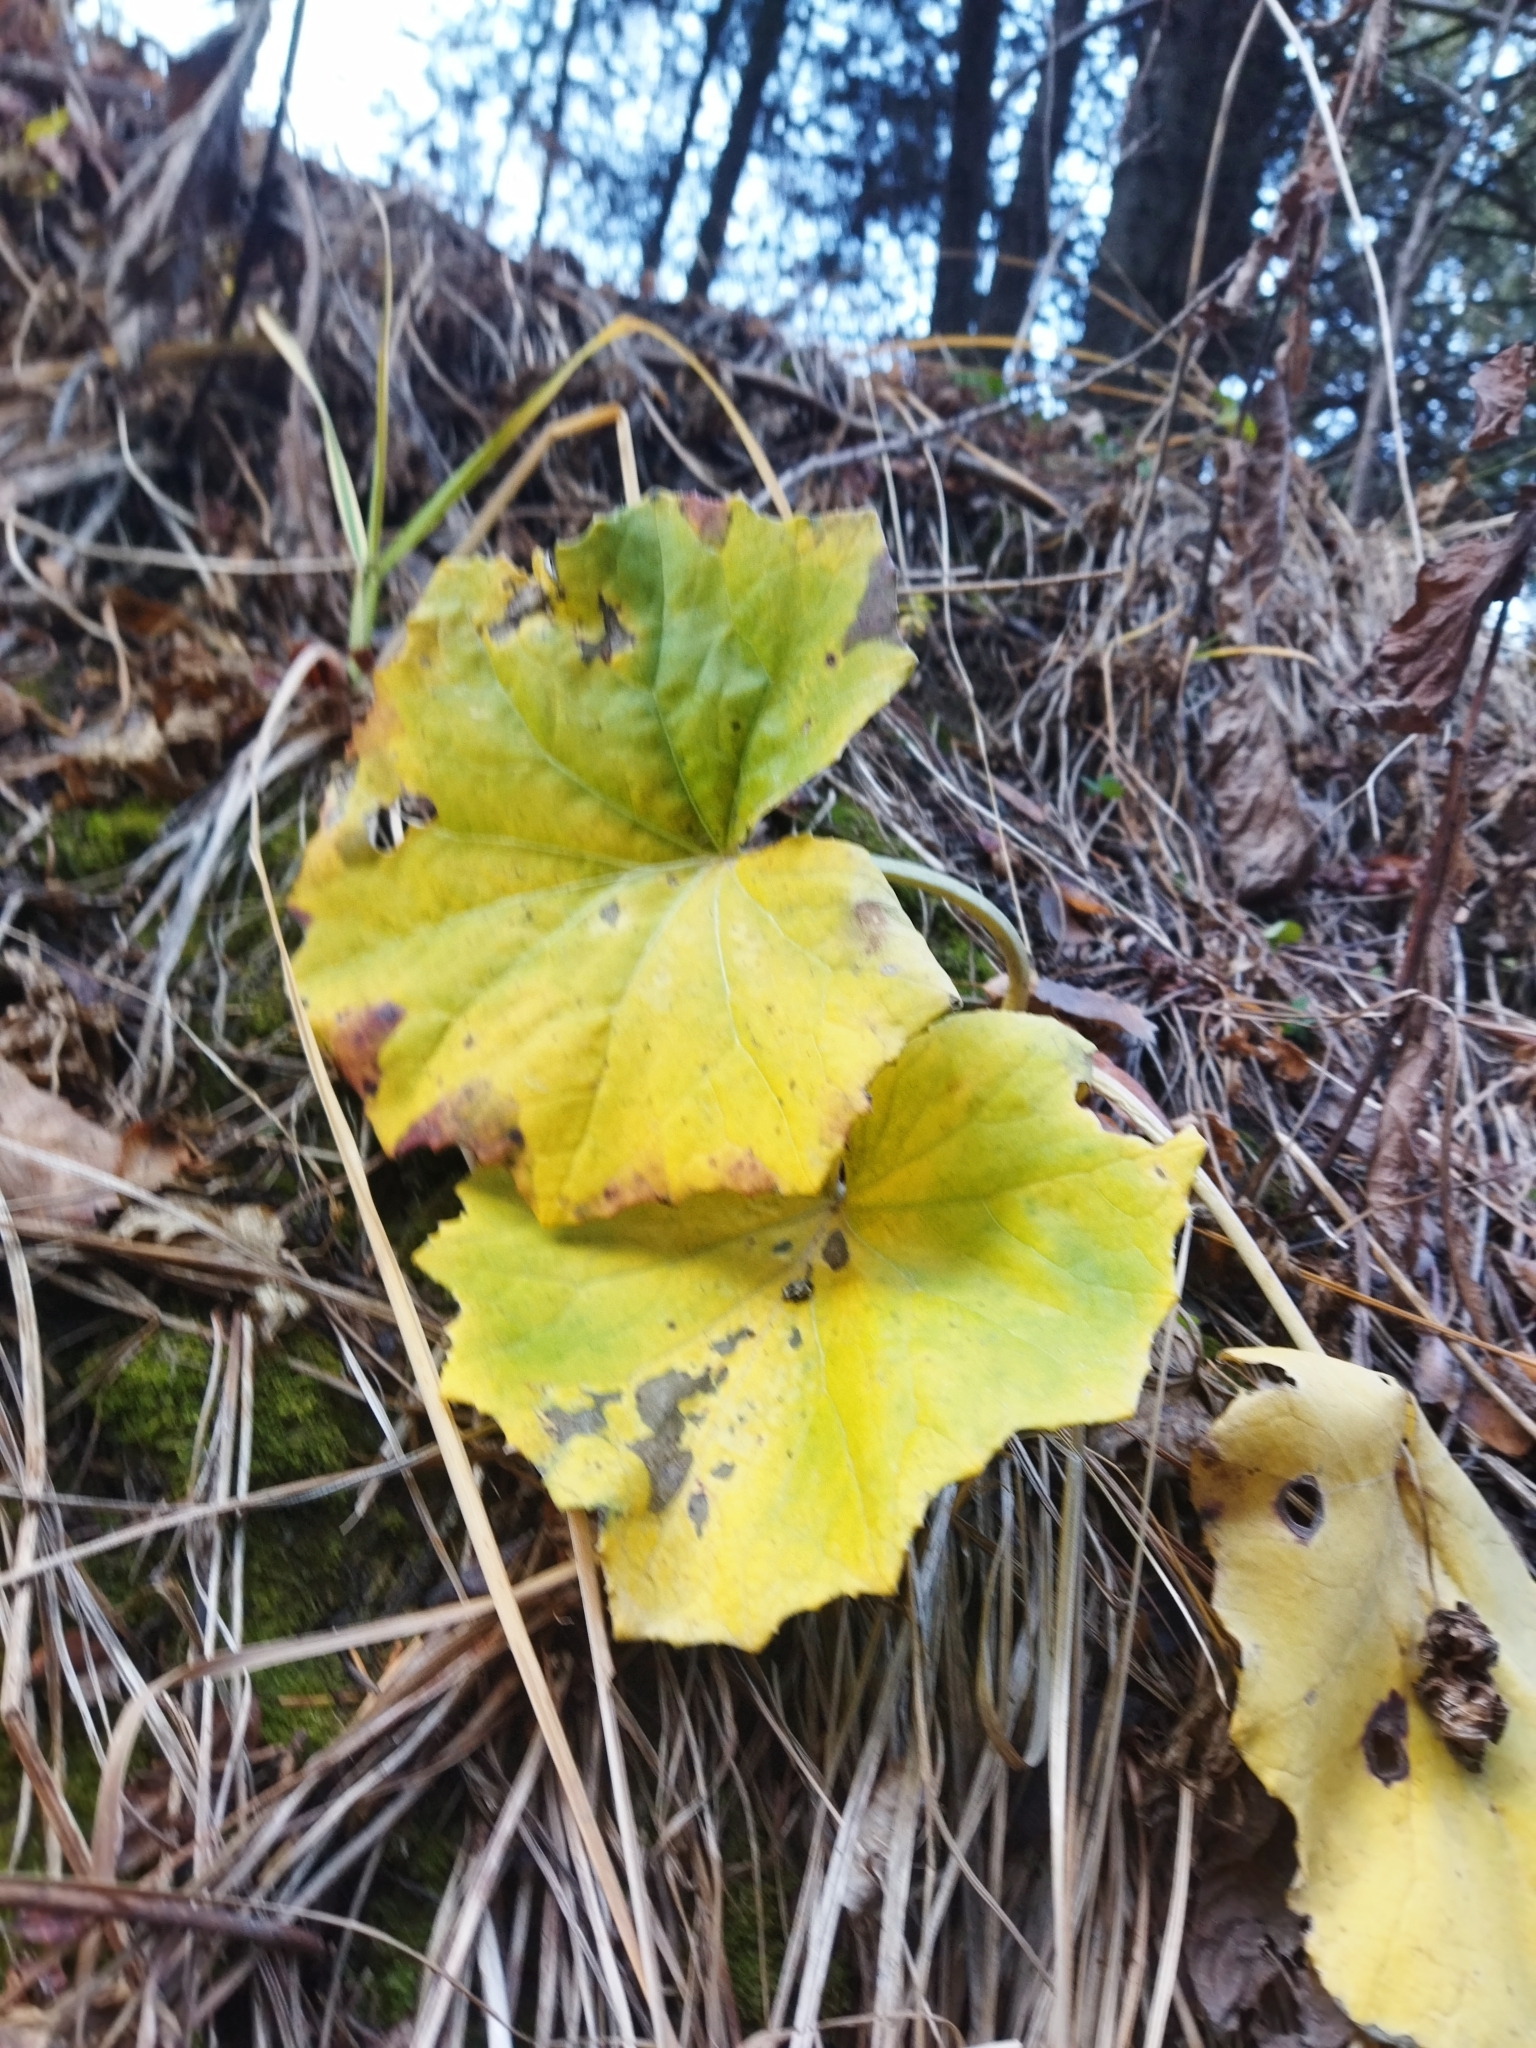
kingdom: Plantae
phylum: Tracheophyta
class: Magnoliopsida
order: Asterales
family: Asteraceae
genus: Tussilago
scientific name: Tussilago farfara
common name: Coltsfoot
